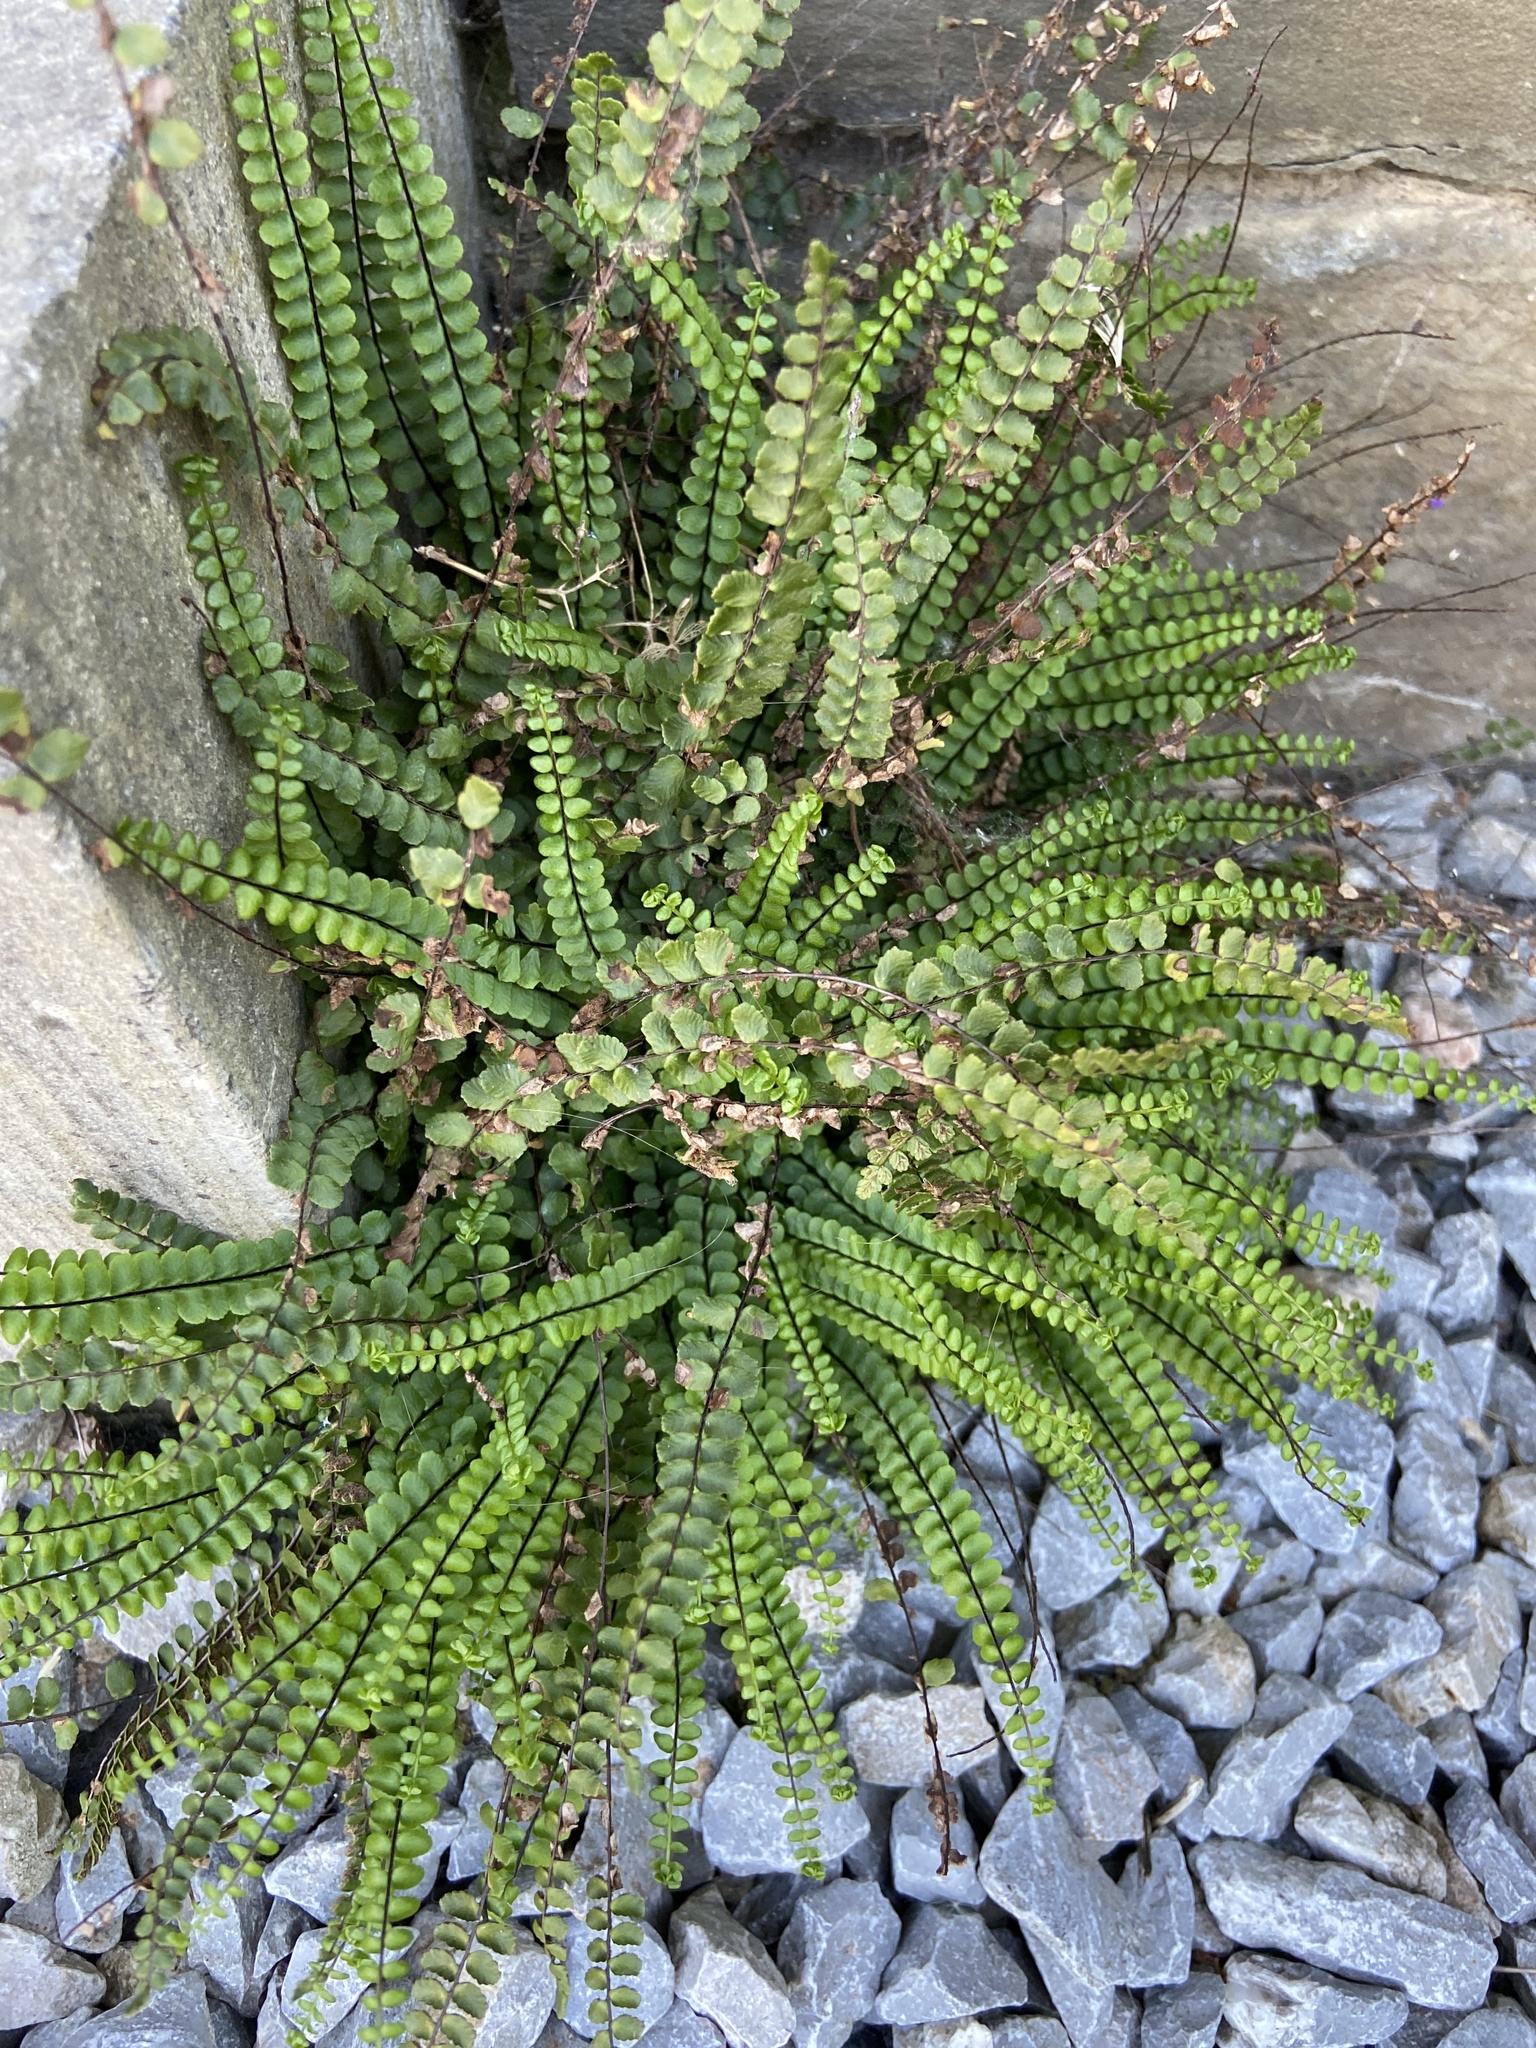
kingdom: Plantae
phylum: Tracheophyta
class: Polypodiopsida
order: Polypodiales
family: Aspleniaceae
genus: Asplenium
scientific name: Asplenium trichomanes
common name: Maidenhair spleenwort
